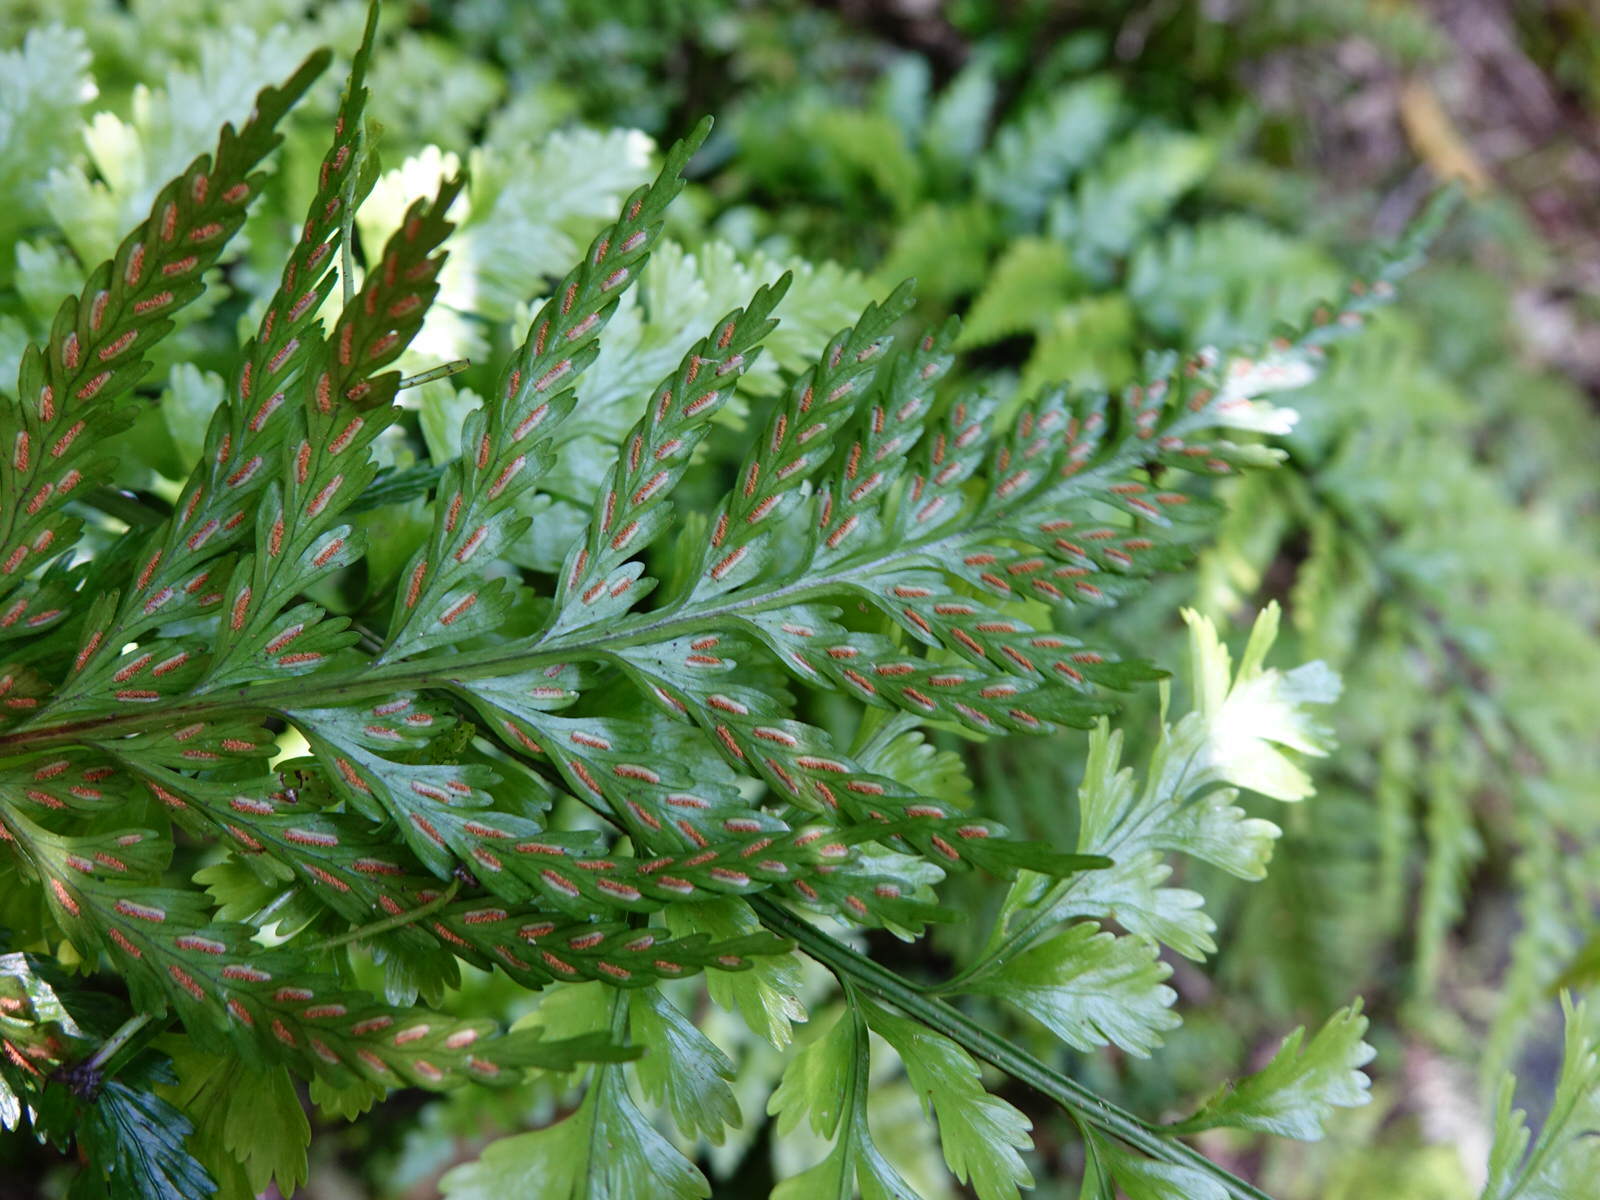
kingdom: Plantae
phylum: Tracheophyta
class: Polypodiopsida
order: Polypodiales
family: Aspleniaceae
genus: Asplenium
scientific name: Asplenium bulbiferum
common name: Mother fern
